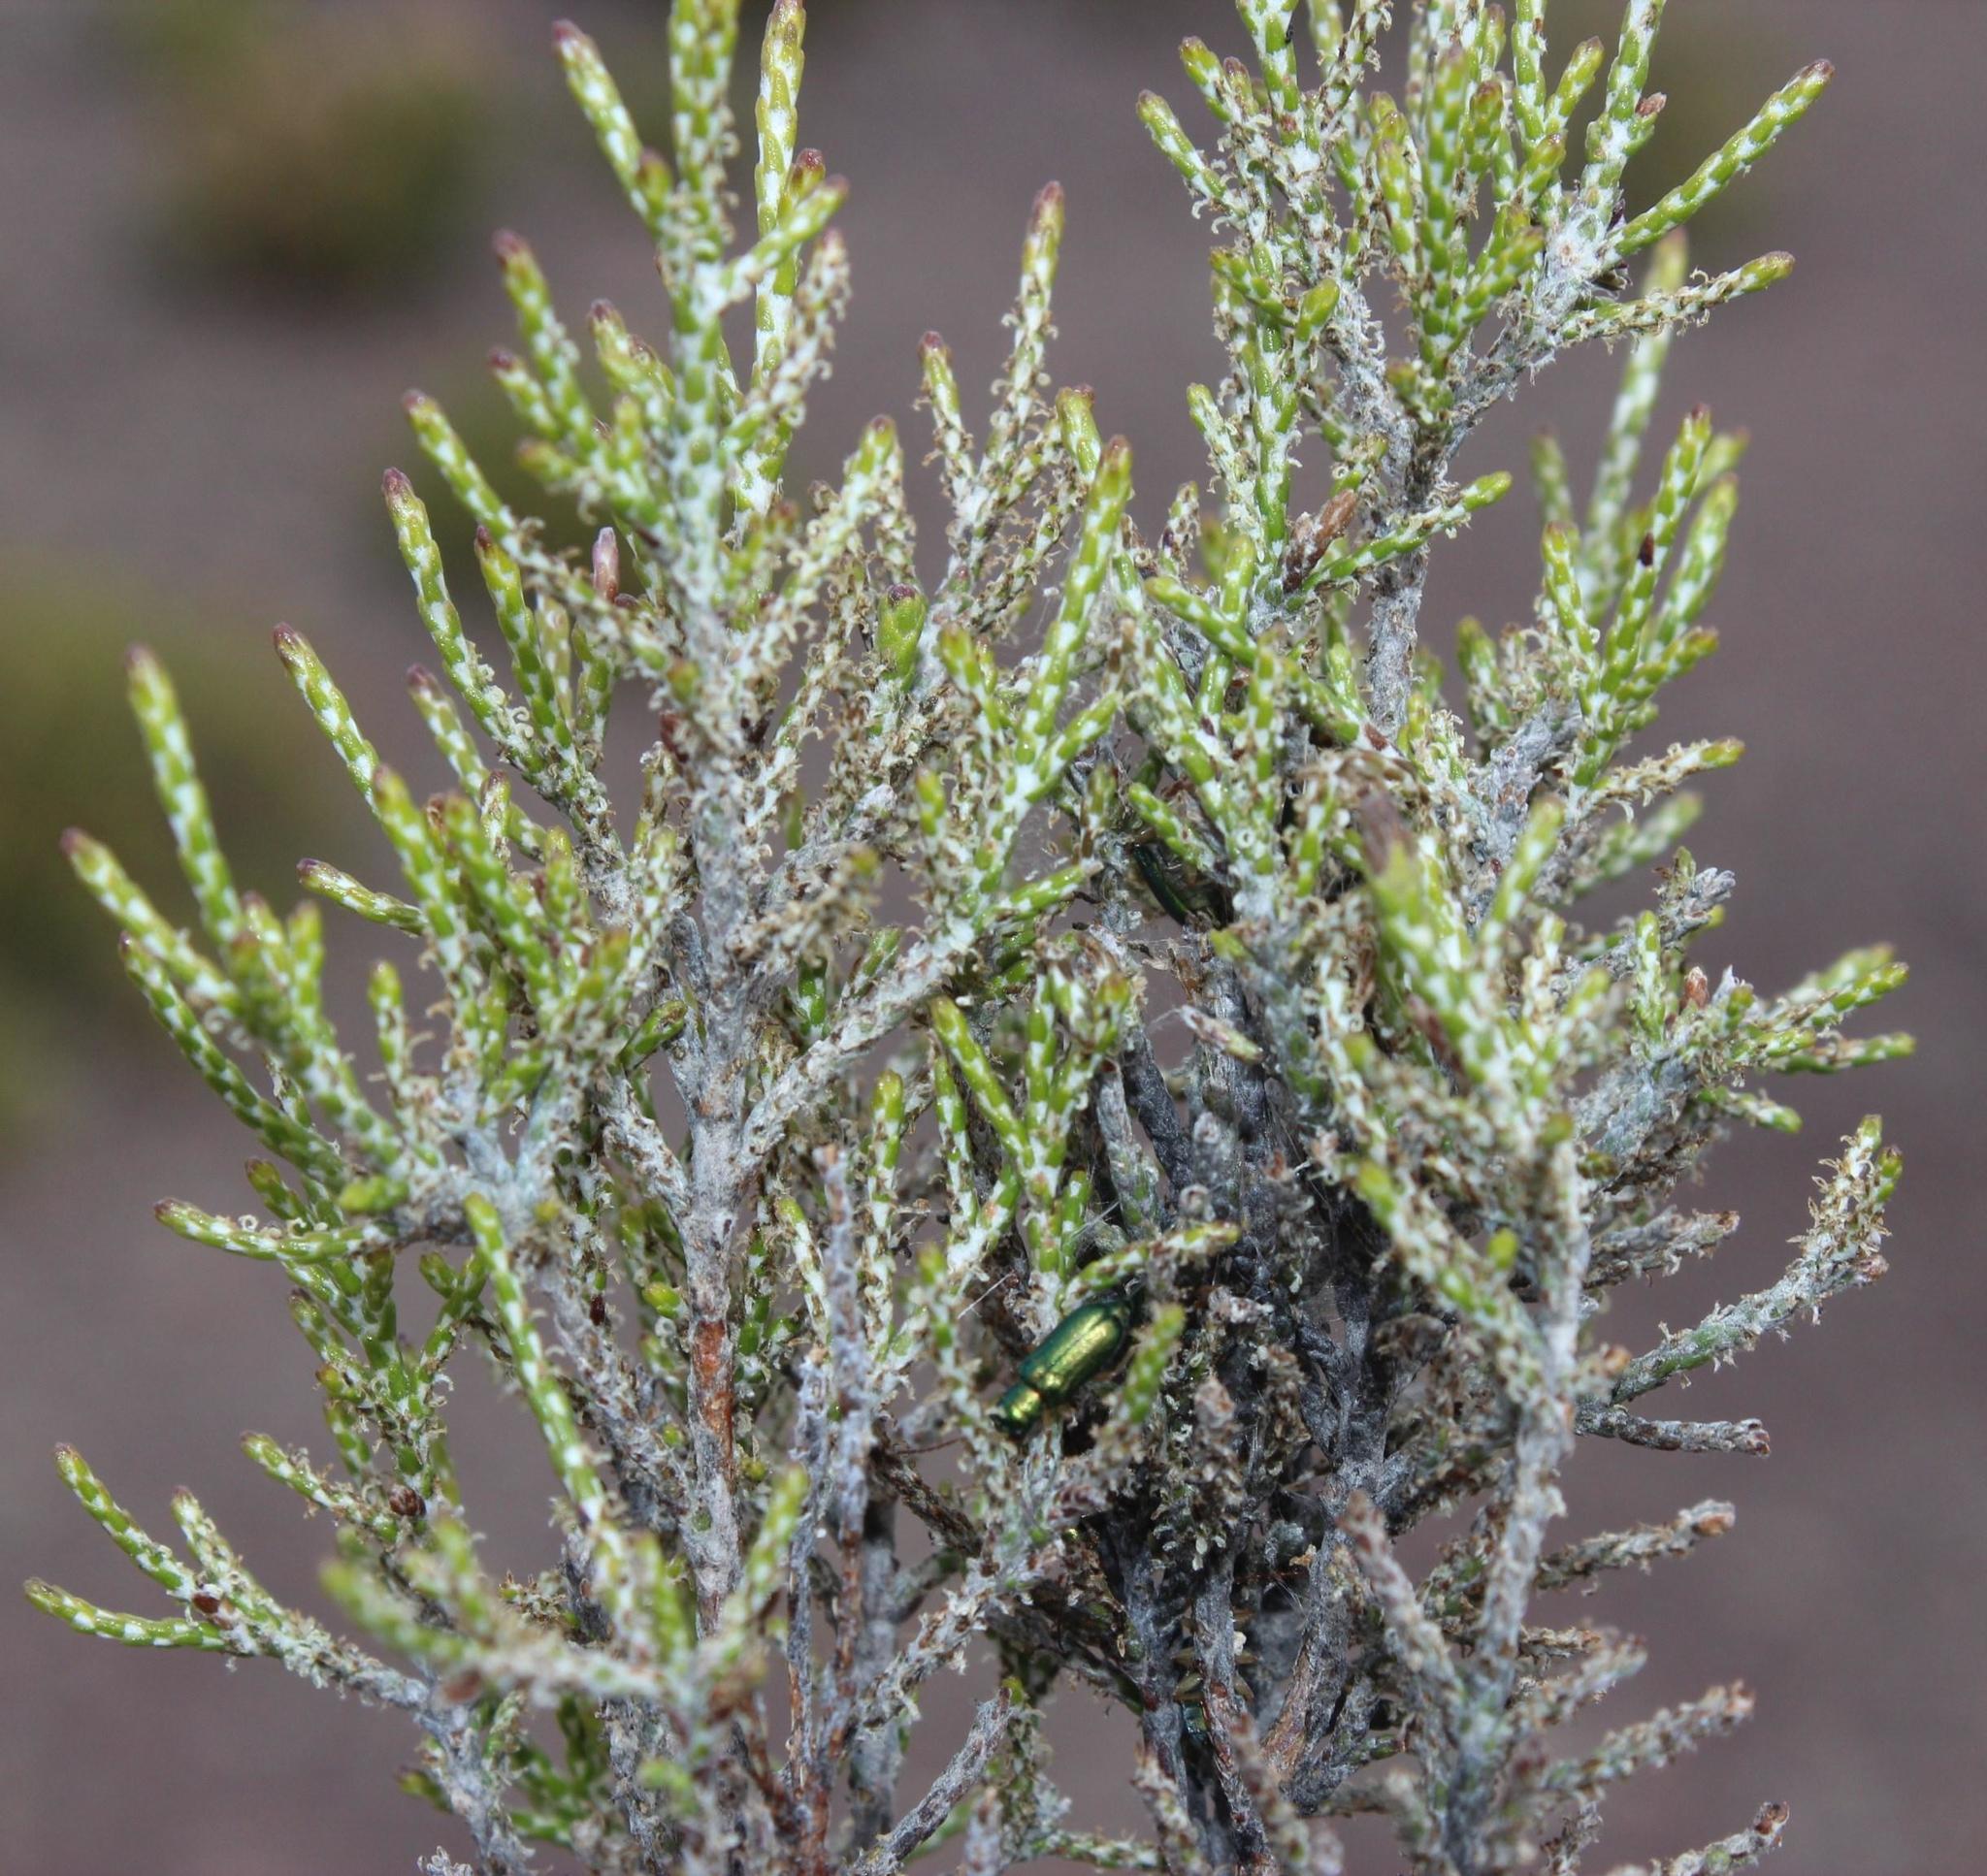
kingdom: Plantae
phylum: Tracheophyta
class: Magnoliopsida
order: Asterales
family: Asteraceae
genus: Dicerothamnus
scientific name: Dicerothamnus rhinocerotis
